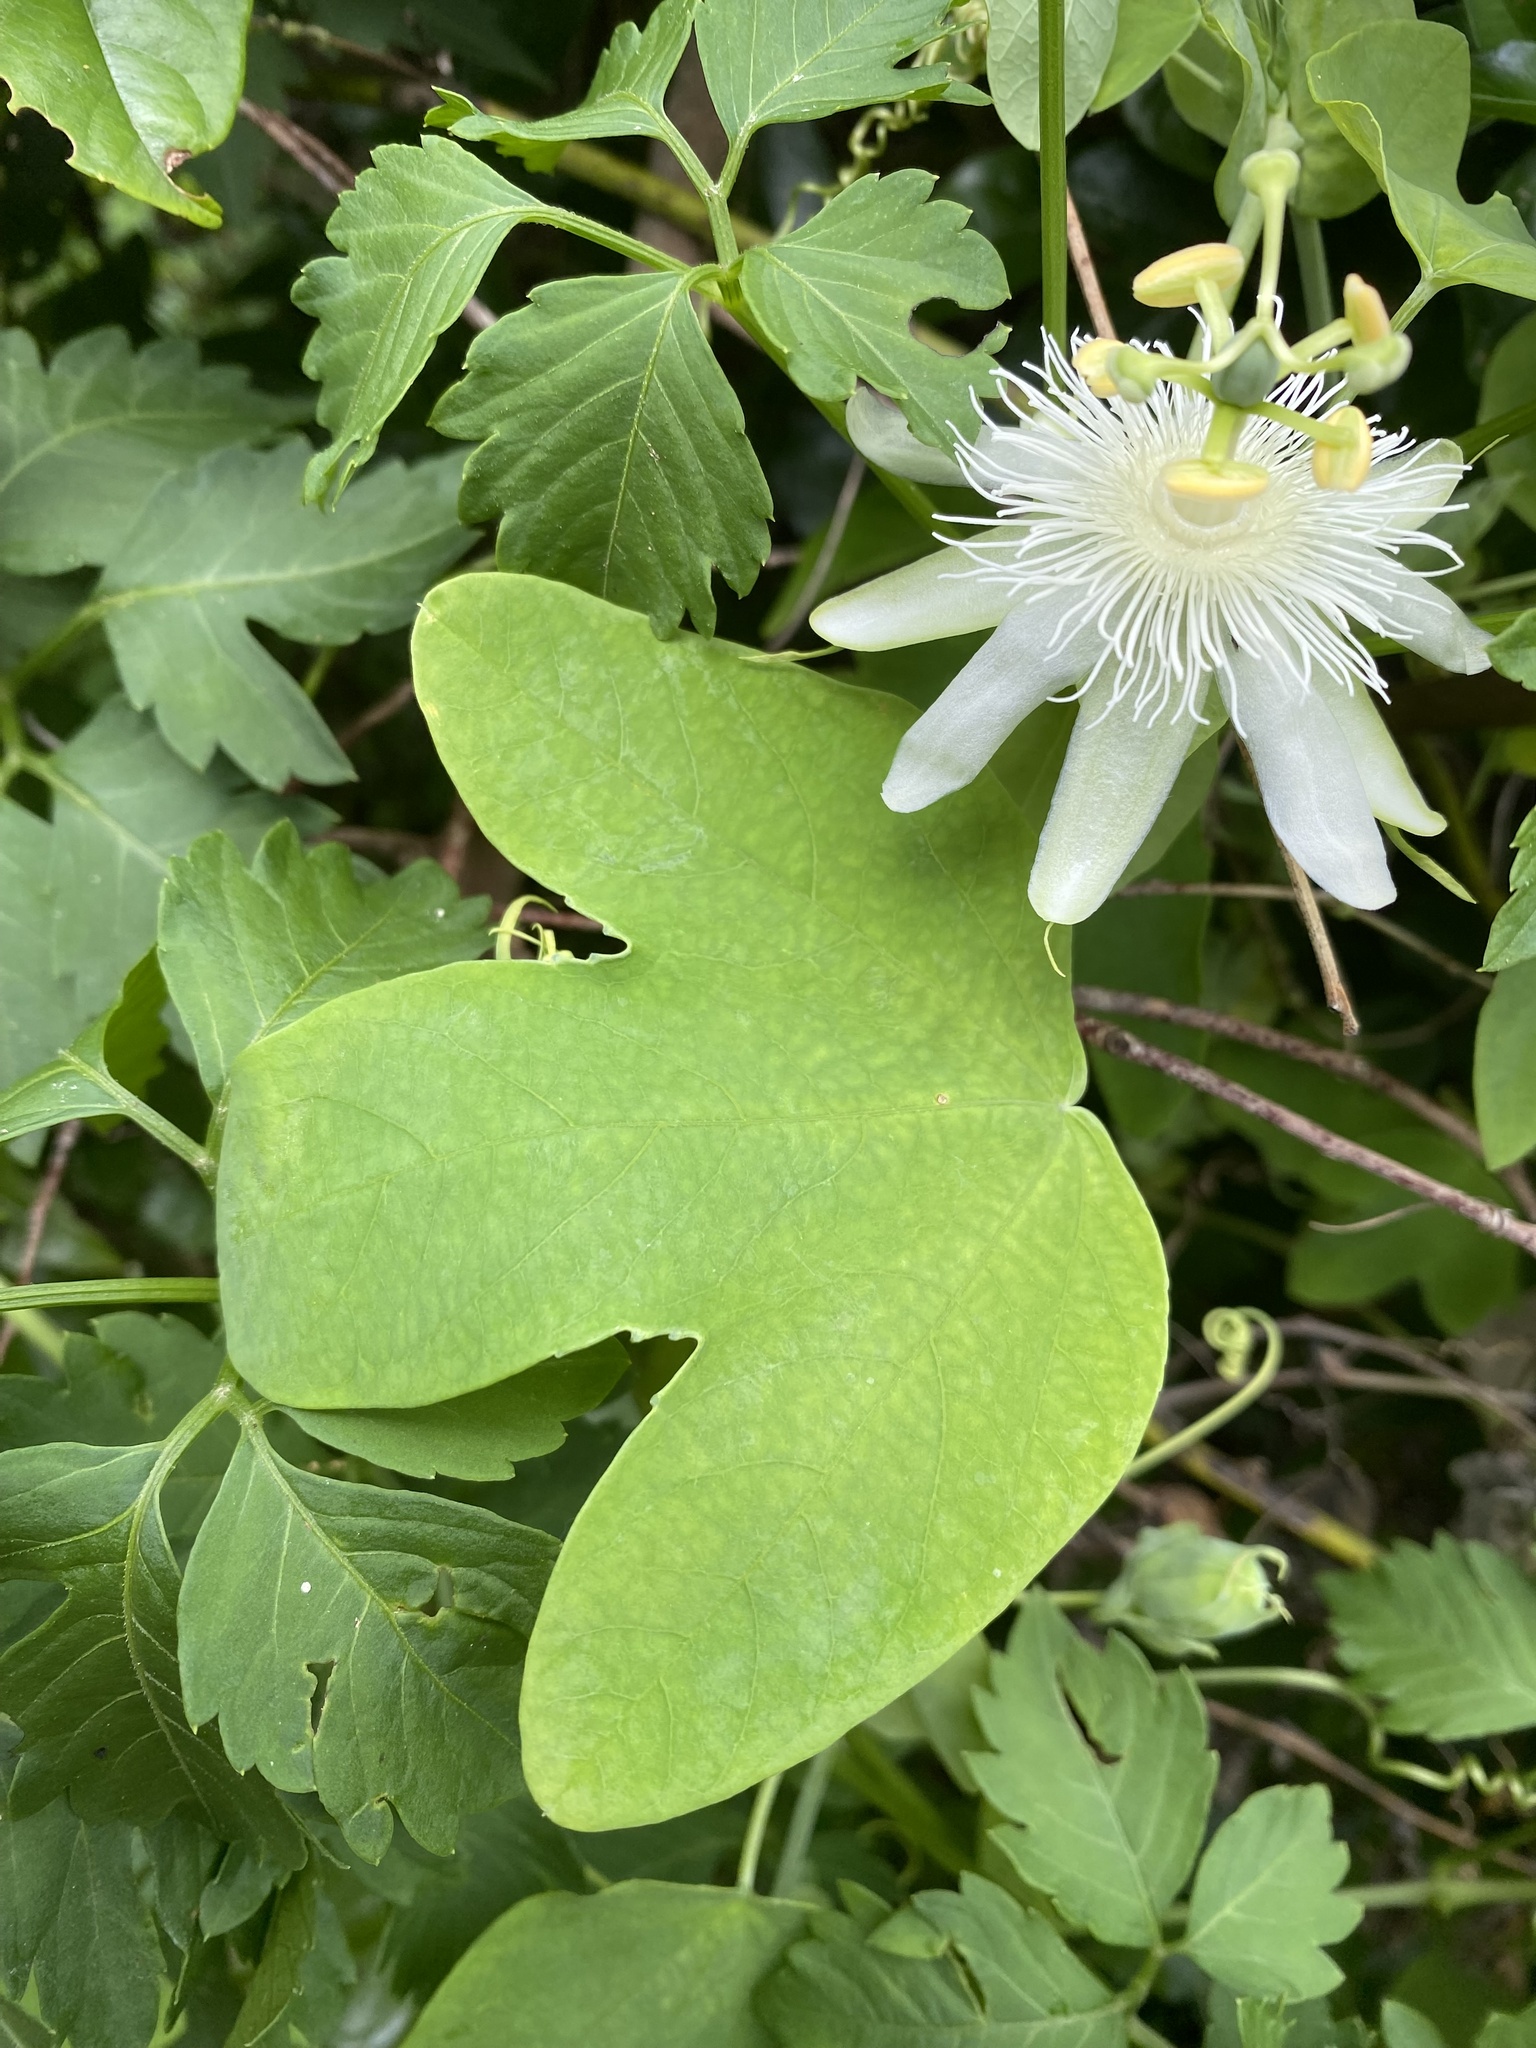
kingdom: Plantae
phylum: Tracheophyta
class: Magnoliopsida
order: Malpighiales
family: Passifloraceae
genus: Passiflora
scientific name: Passiflora subpeltata
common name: White passionflower
